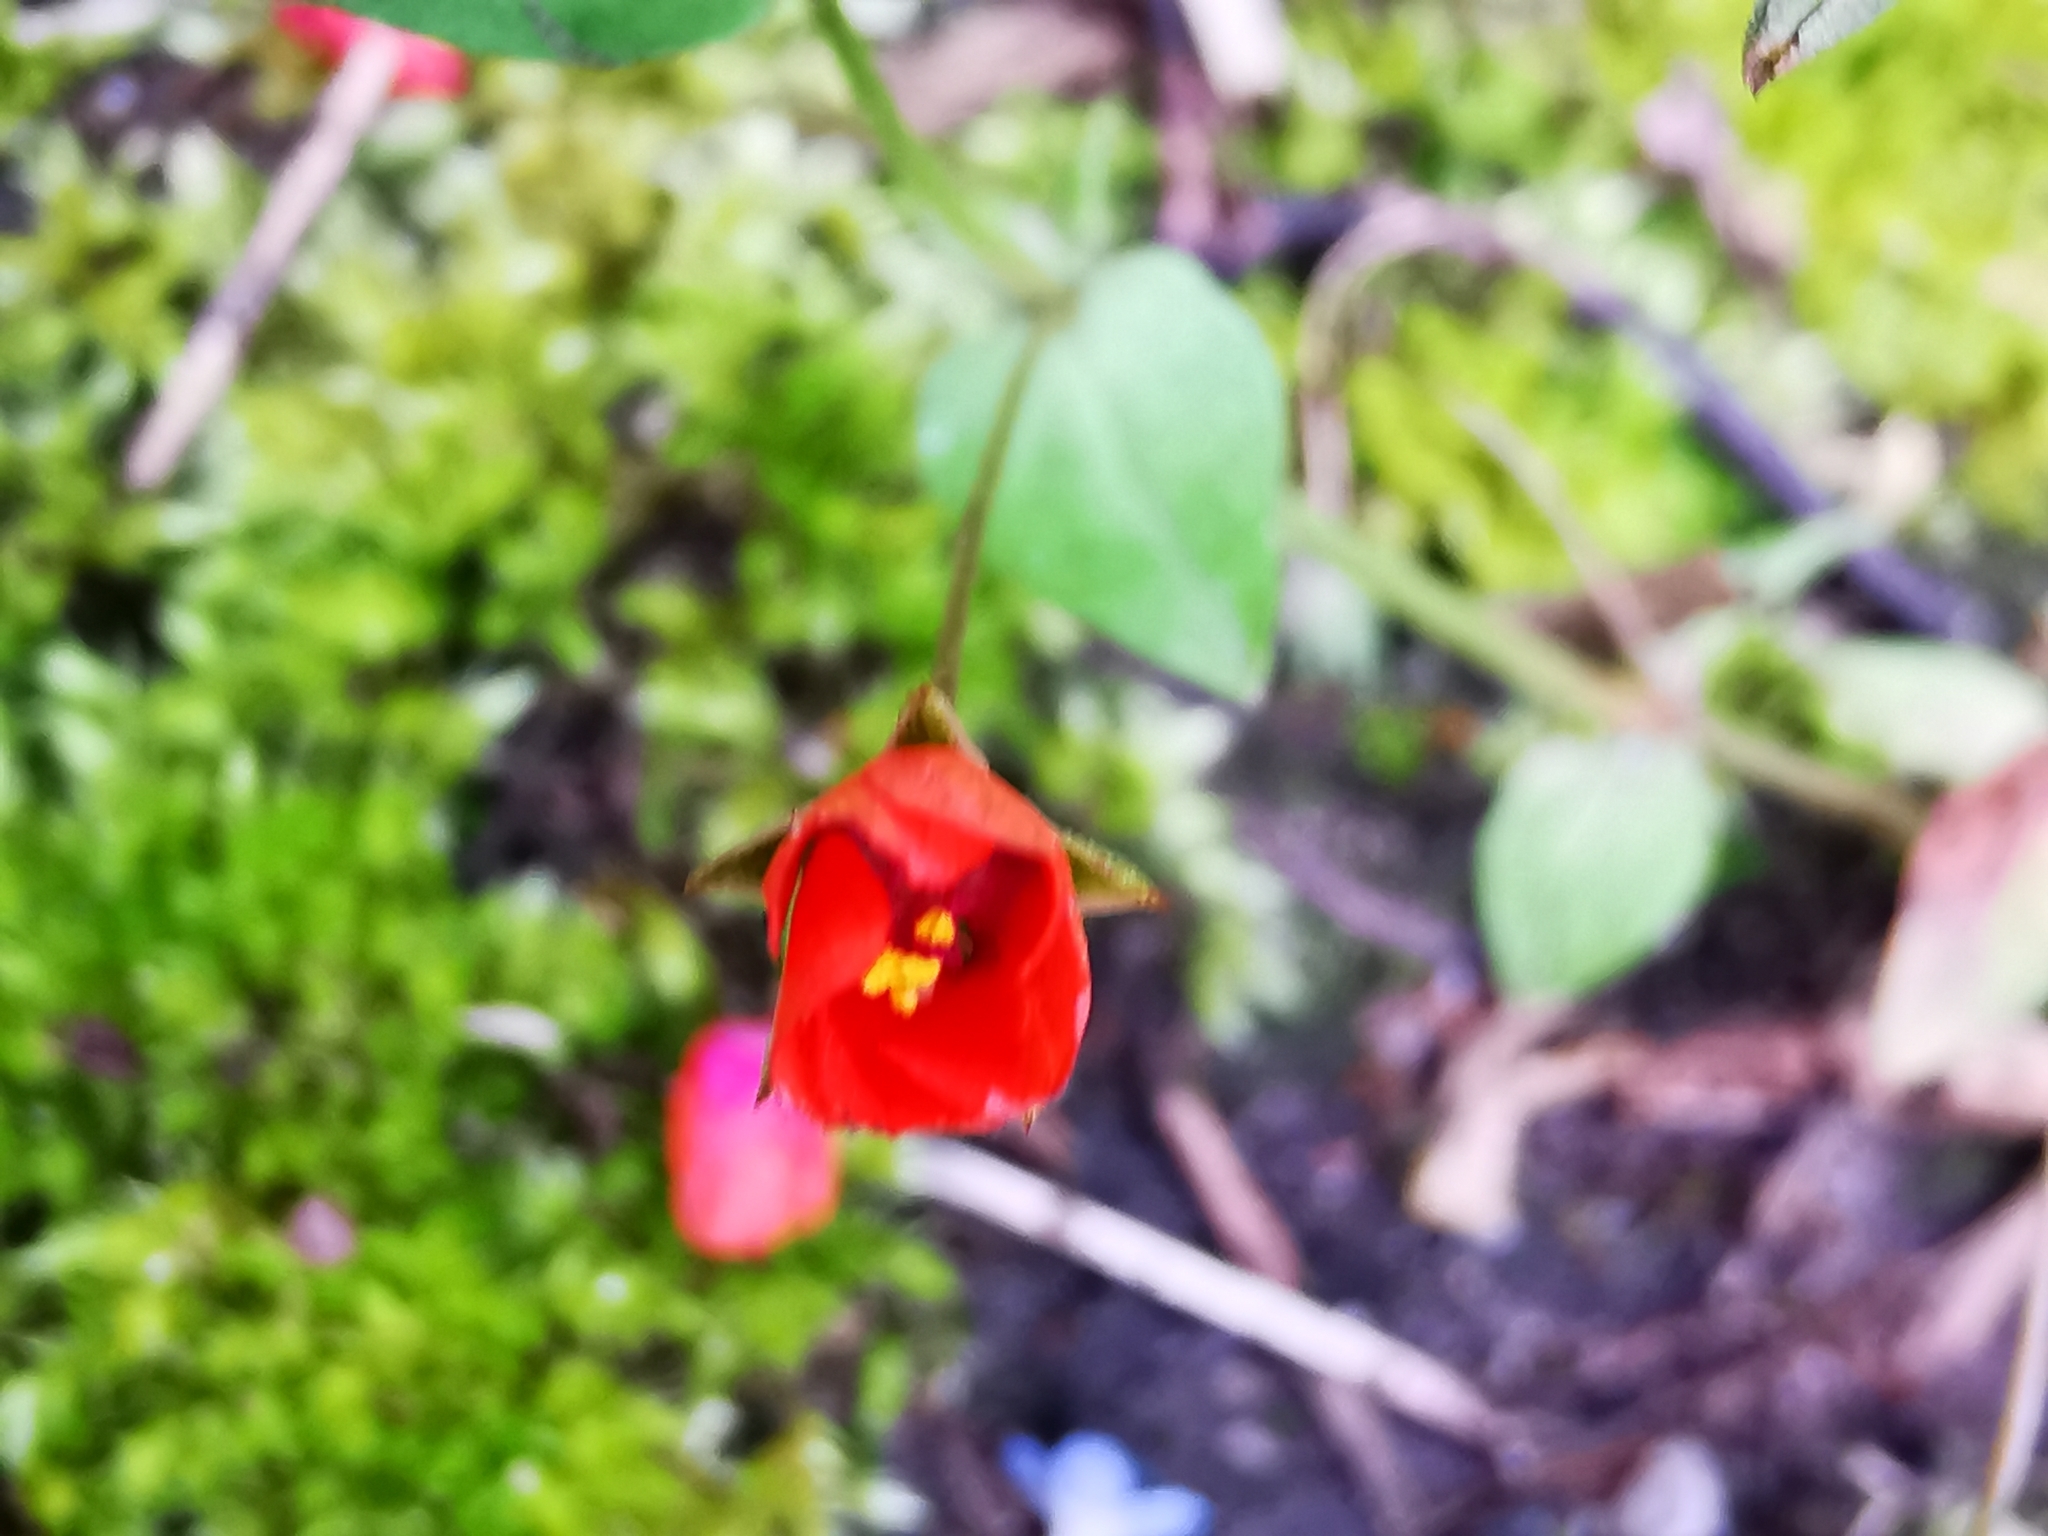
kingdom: Plantae
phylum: Tracheophyta
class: Magnoliopsida
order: Ericales
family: Primulaceae
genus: Lysimachia
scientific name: Lysimachia arvensis
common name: Scarlet pimpernel
